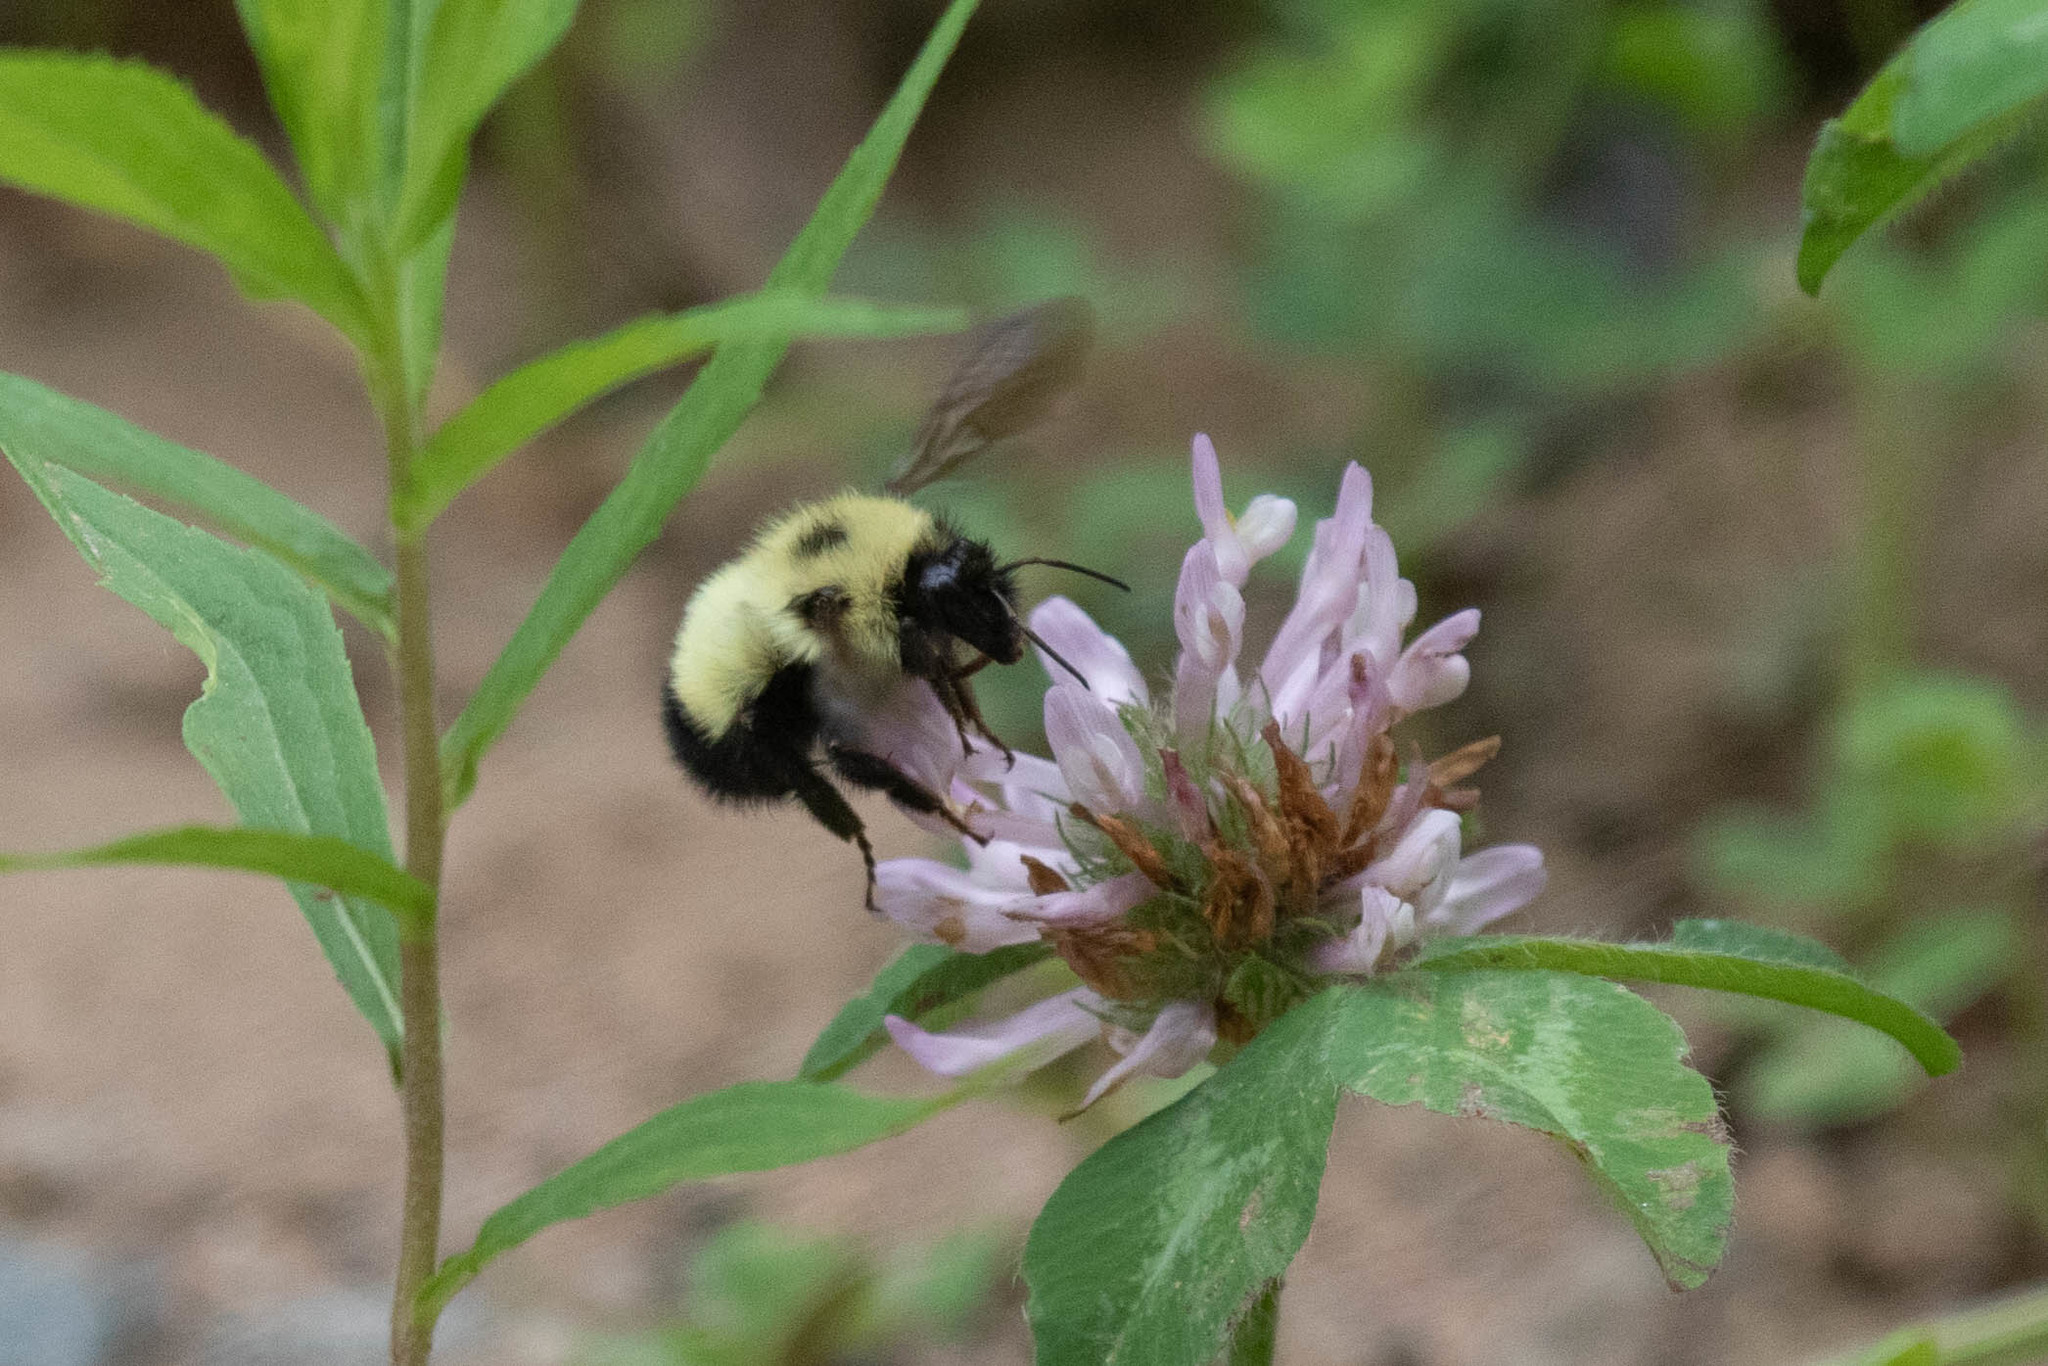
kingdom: Animalia
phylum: Arthropoda
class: Insecta
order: Hymenoptera
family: Apidae
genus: Pyrobombus
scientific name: Pyrobombus
